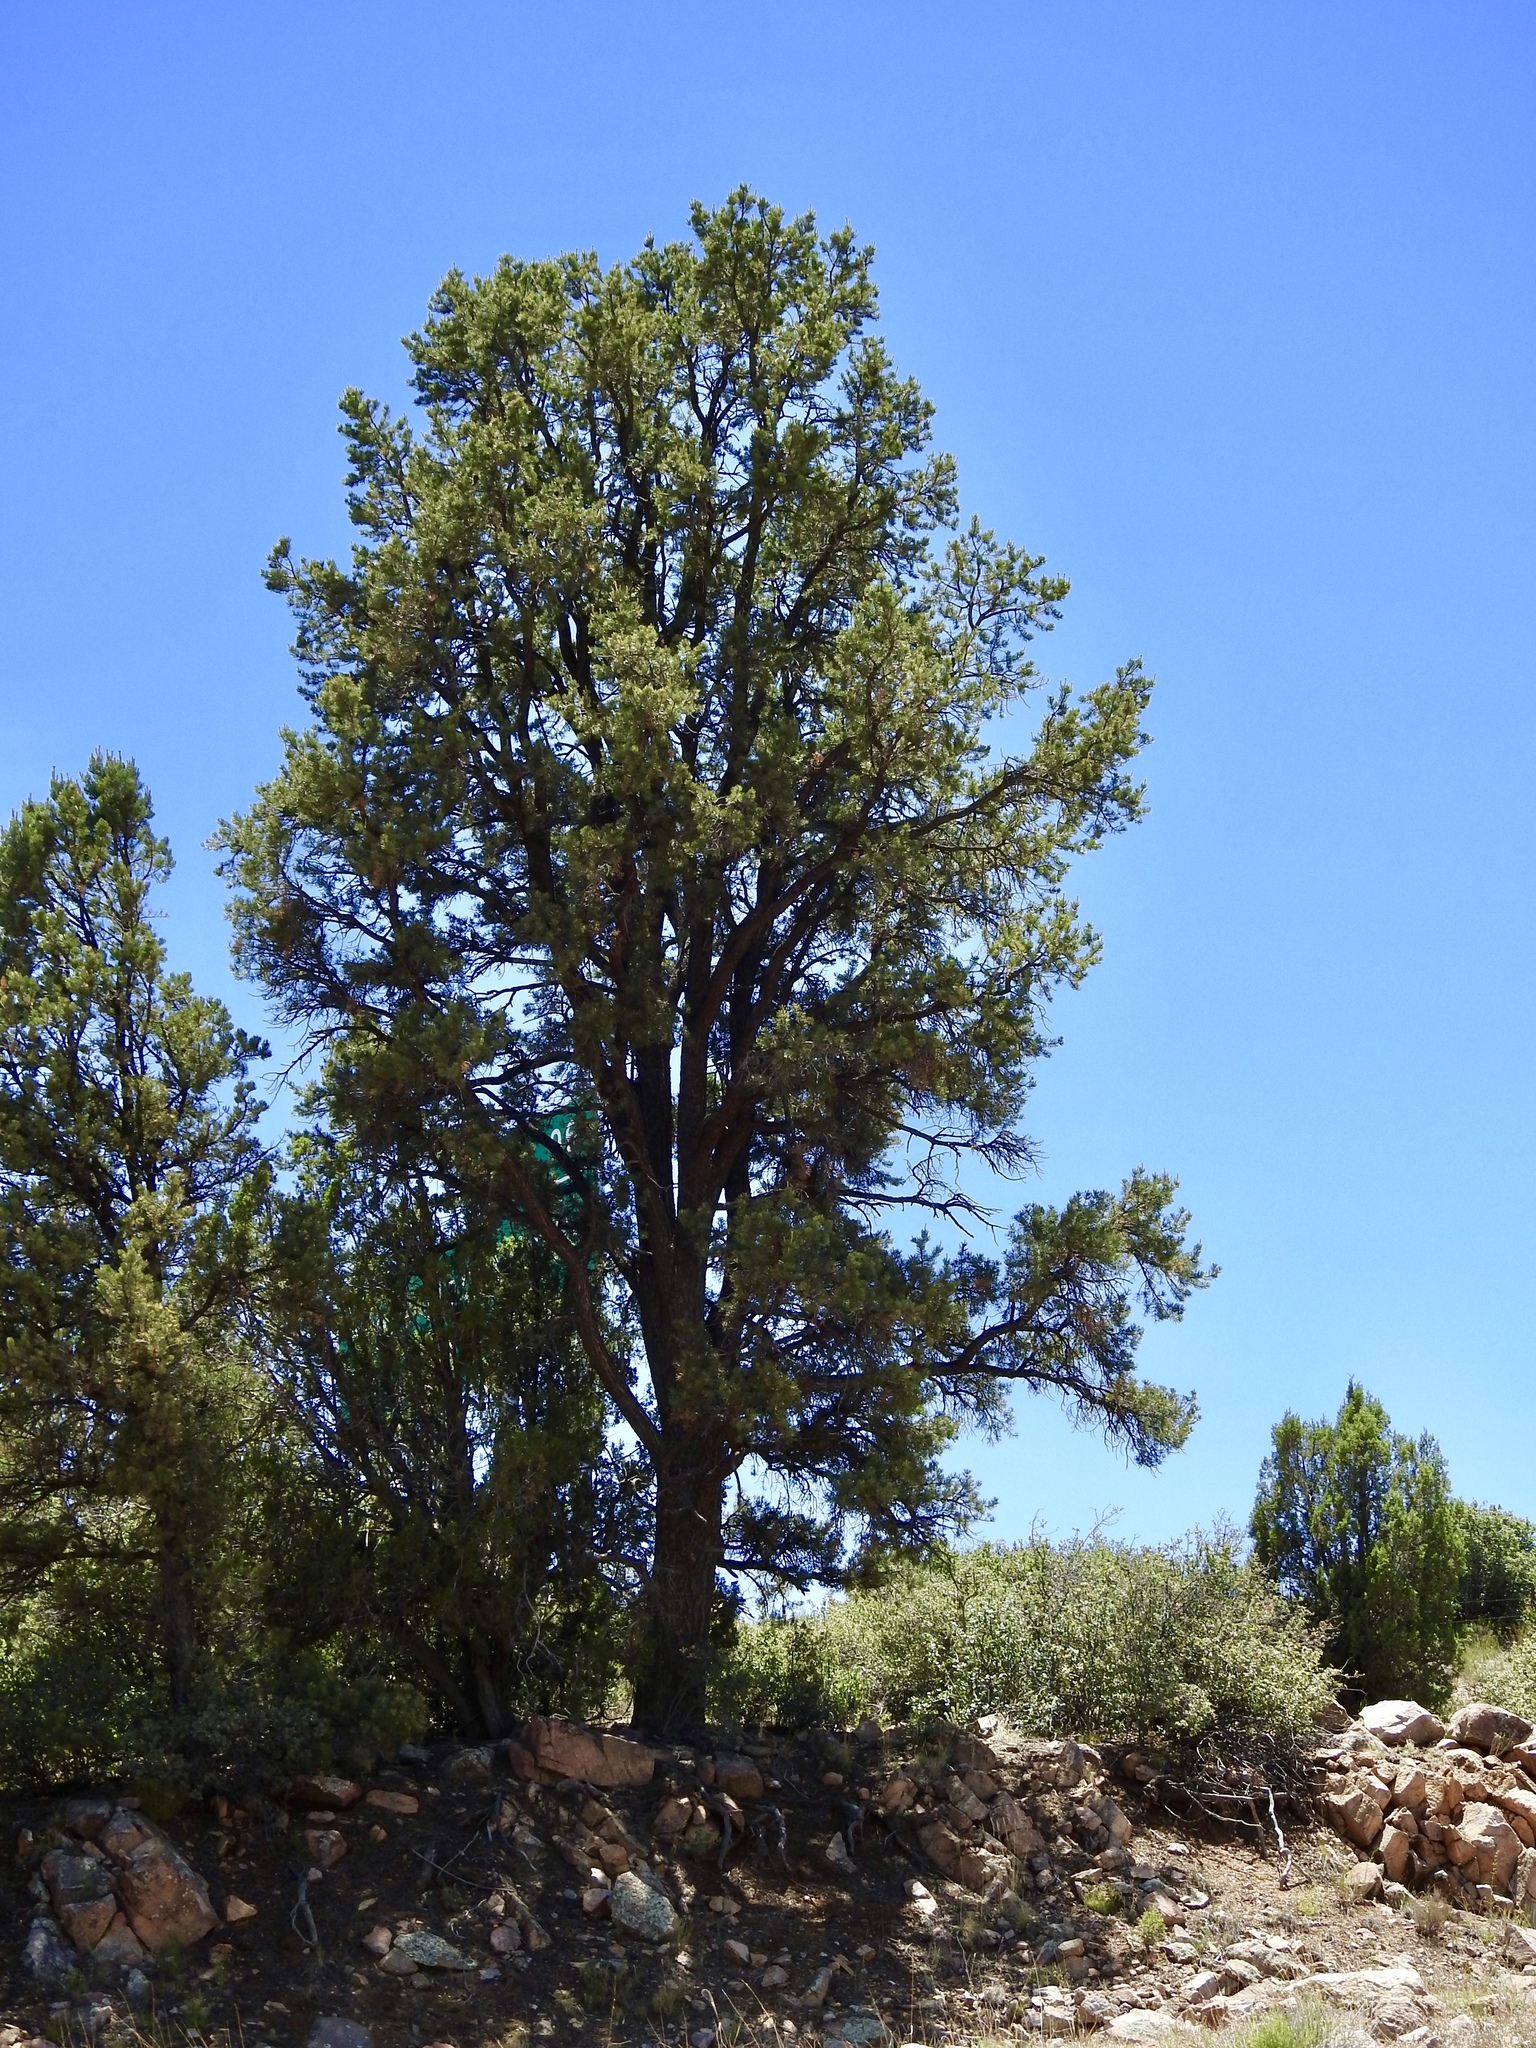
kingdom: Plantae
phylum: Tracheophyta
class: Pinopsida
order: Pinales
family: Pinaceae
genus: Pinus
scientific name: Pinus edulis
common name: Colorado pinyon
